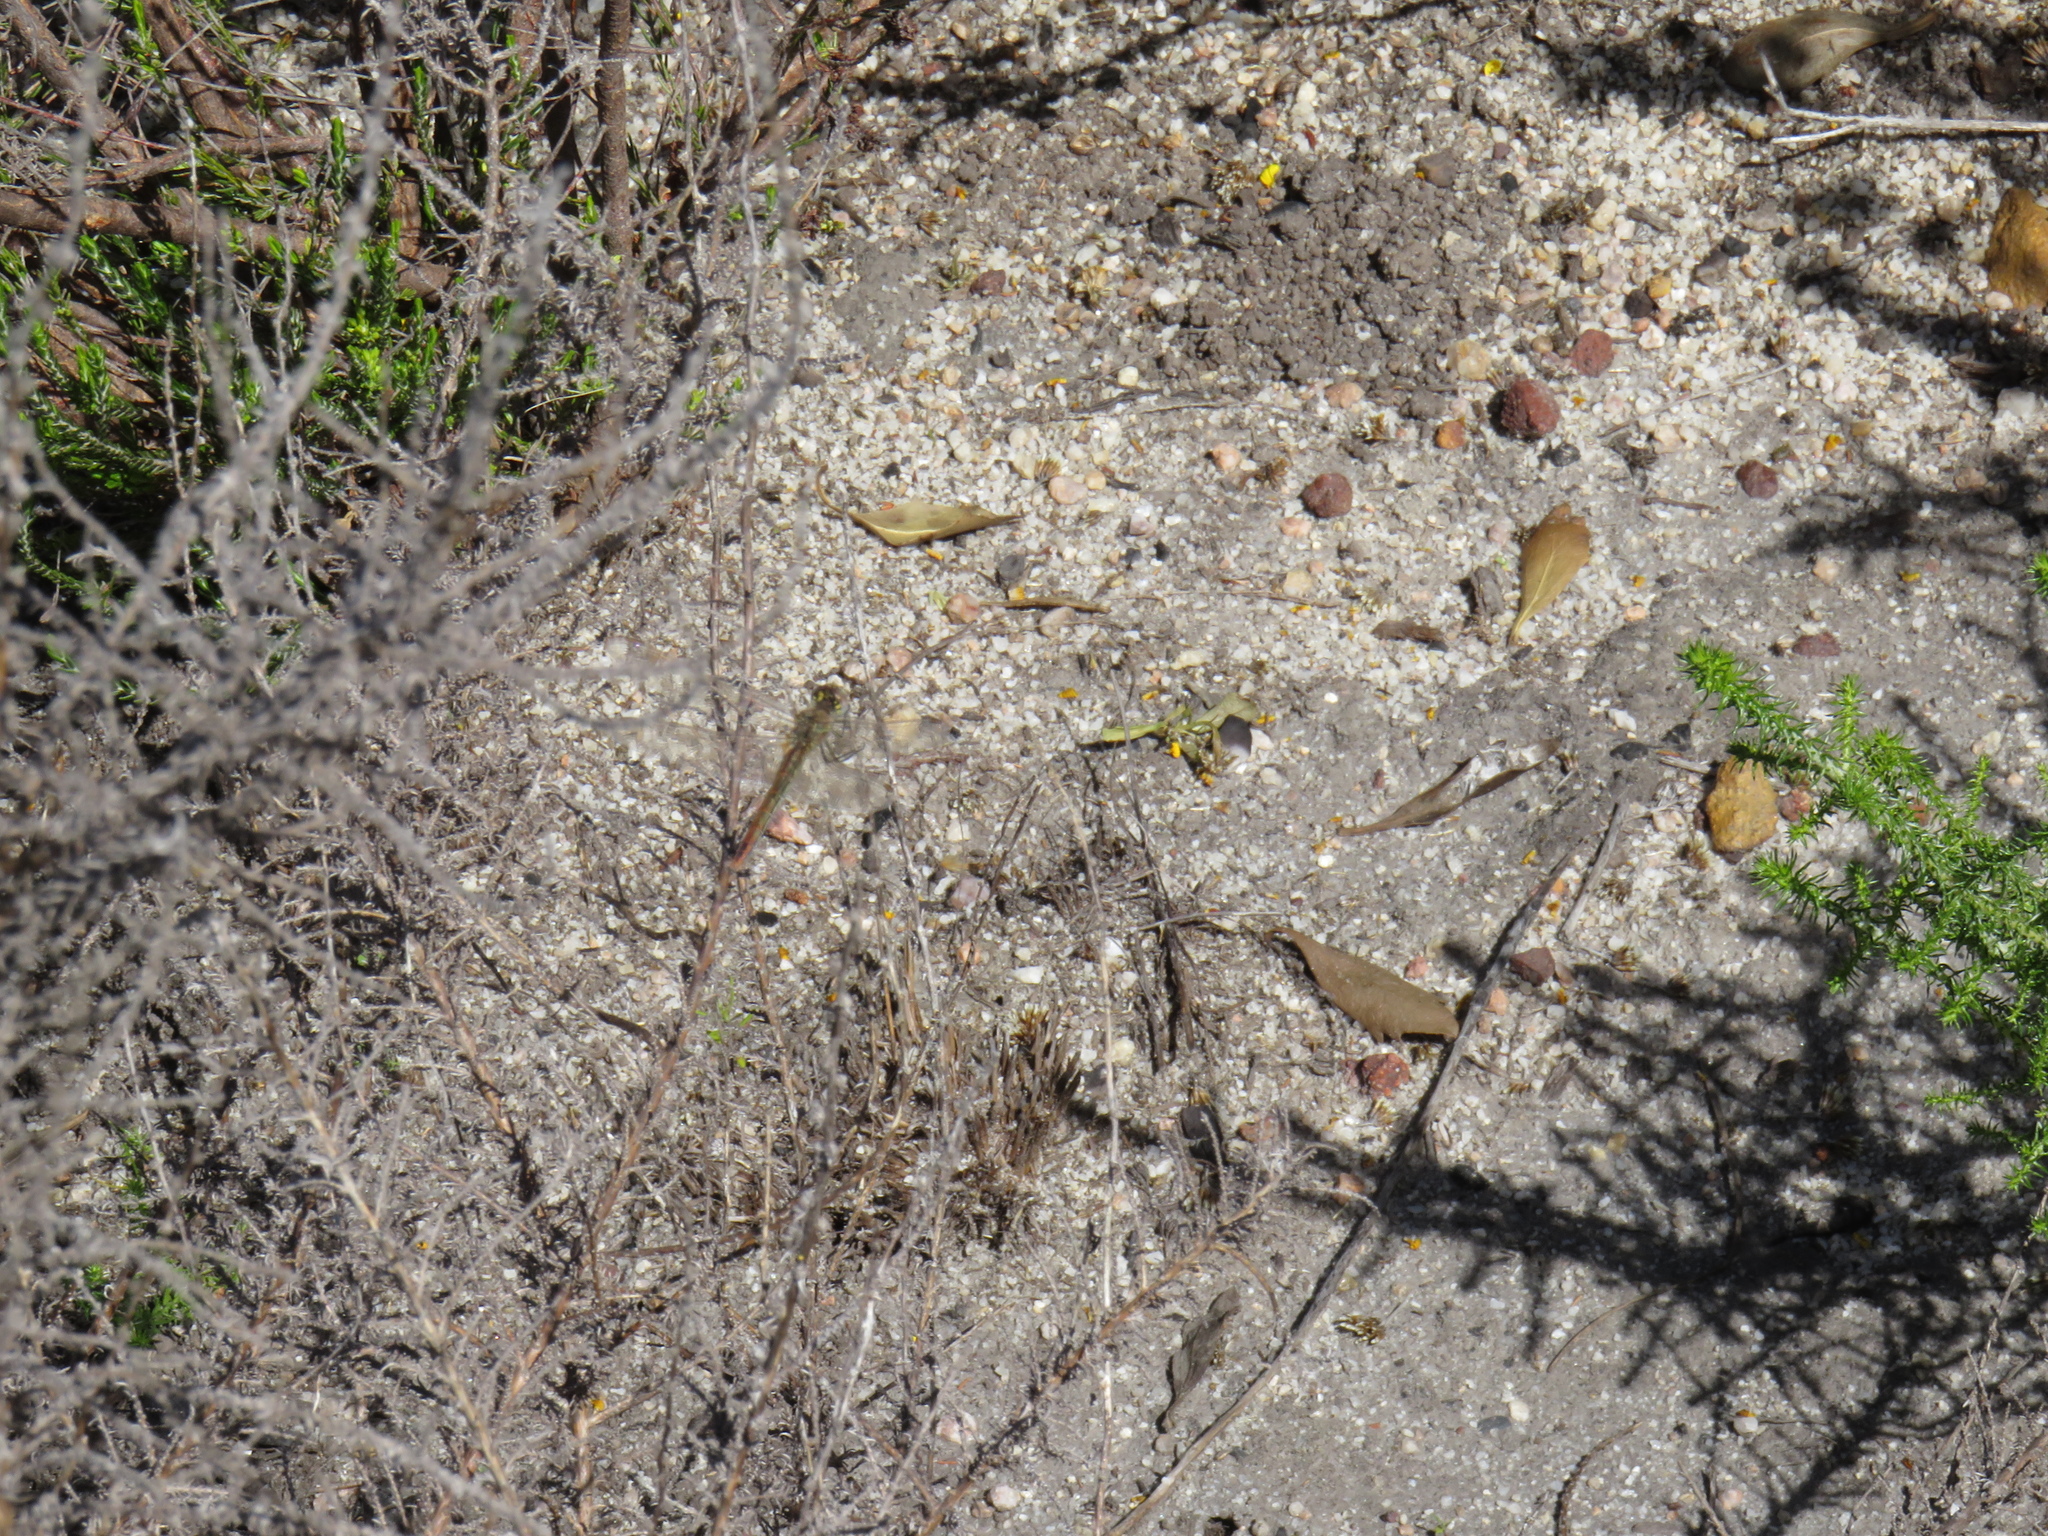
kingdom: Animalia
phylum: Arthropoda
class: Insecta
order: Odonata
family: Libellulidae
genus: Sympetrum
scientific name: Sympetrum fonscolombii
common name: Red-veined darter
